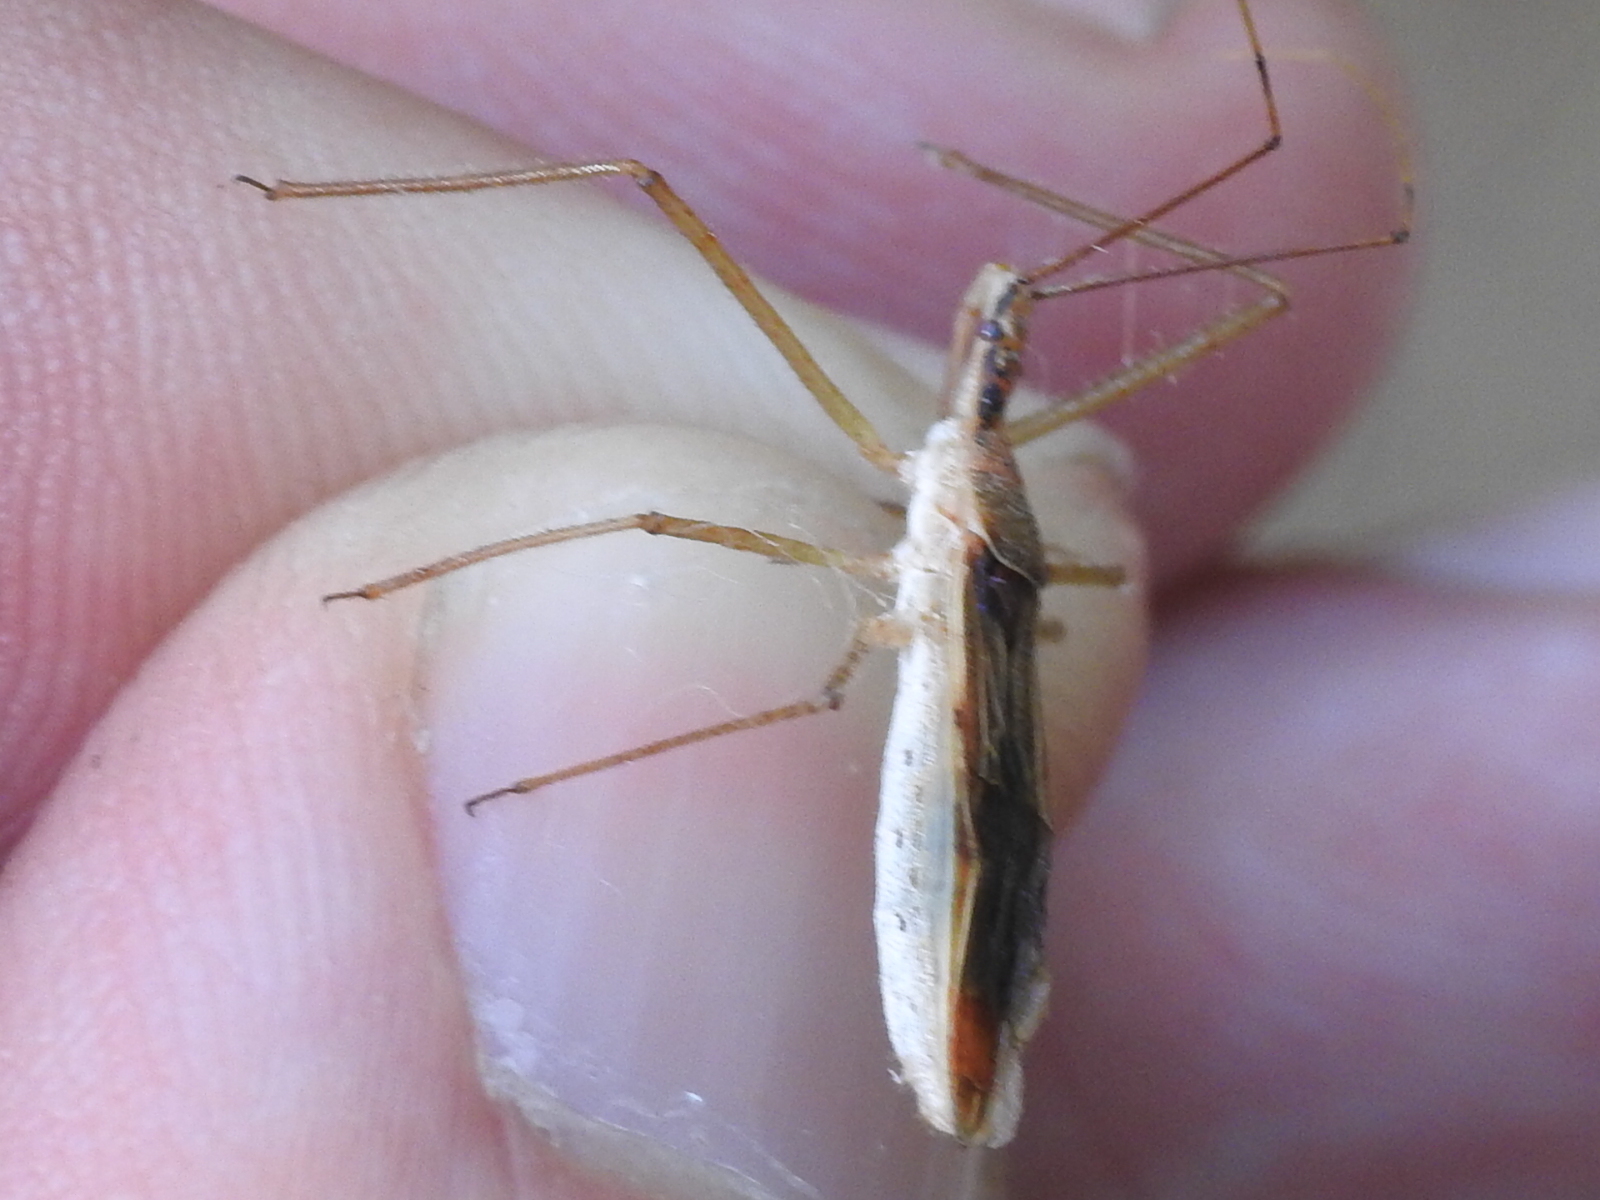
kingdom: Animalia
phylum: Arthropoda
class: Insecta
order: Hemiptera
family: Reduviidae
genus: Zelus
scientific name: Zelus cervicalis
